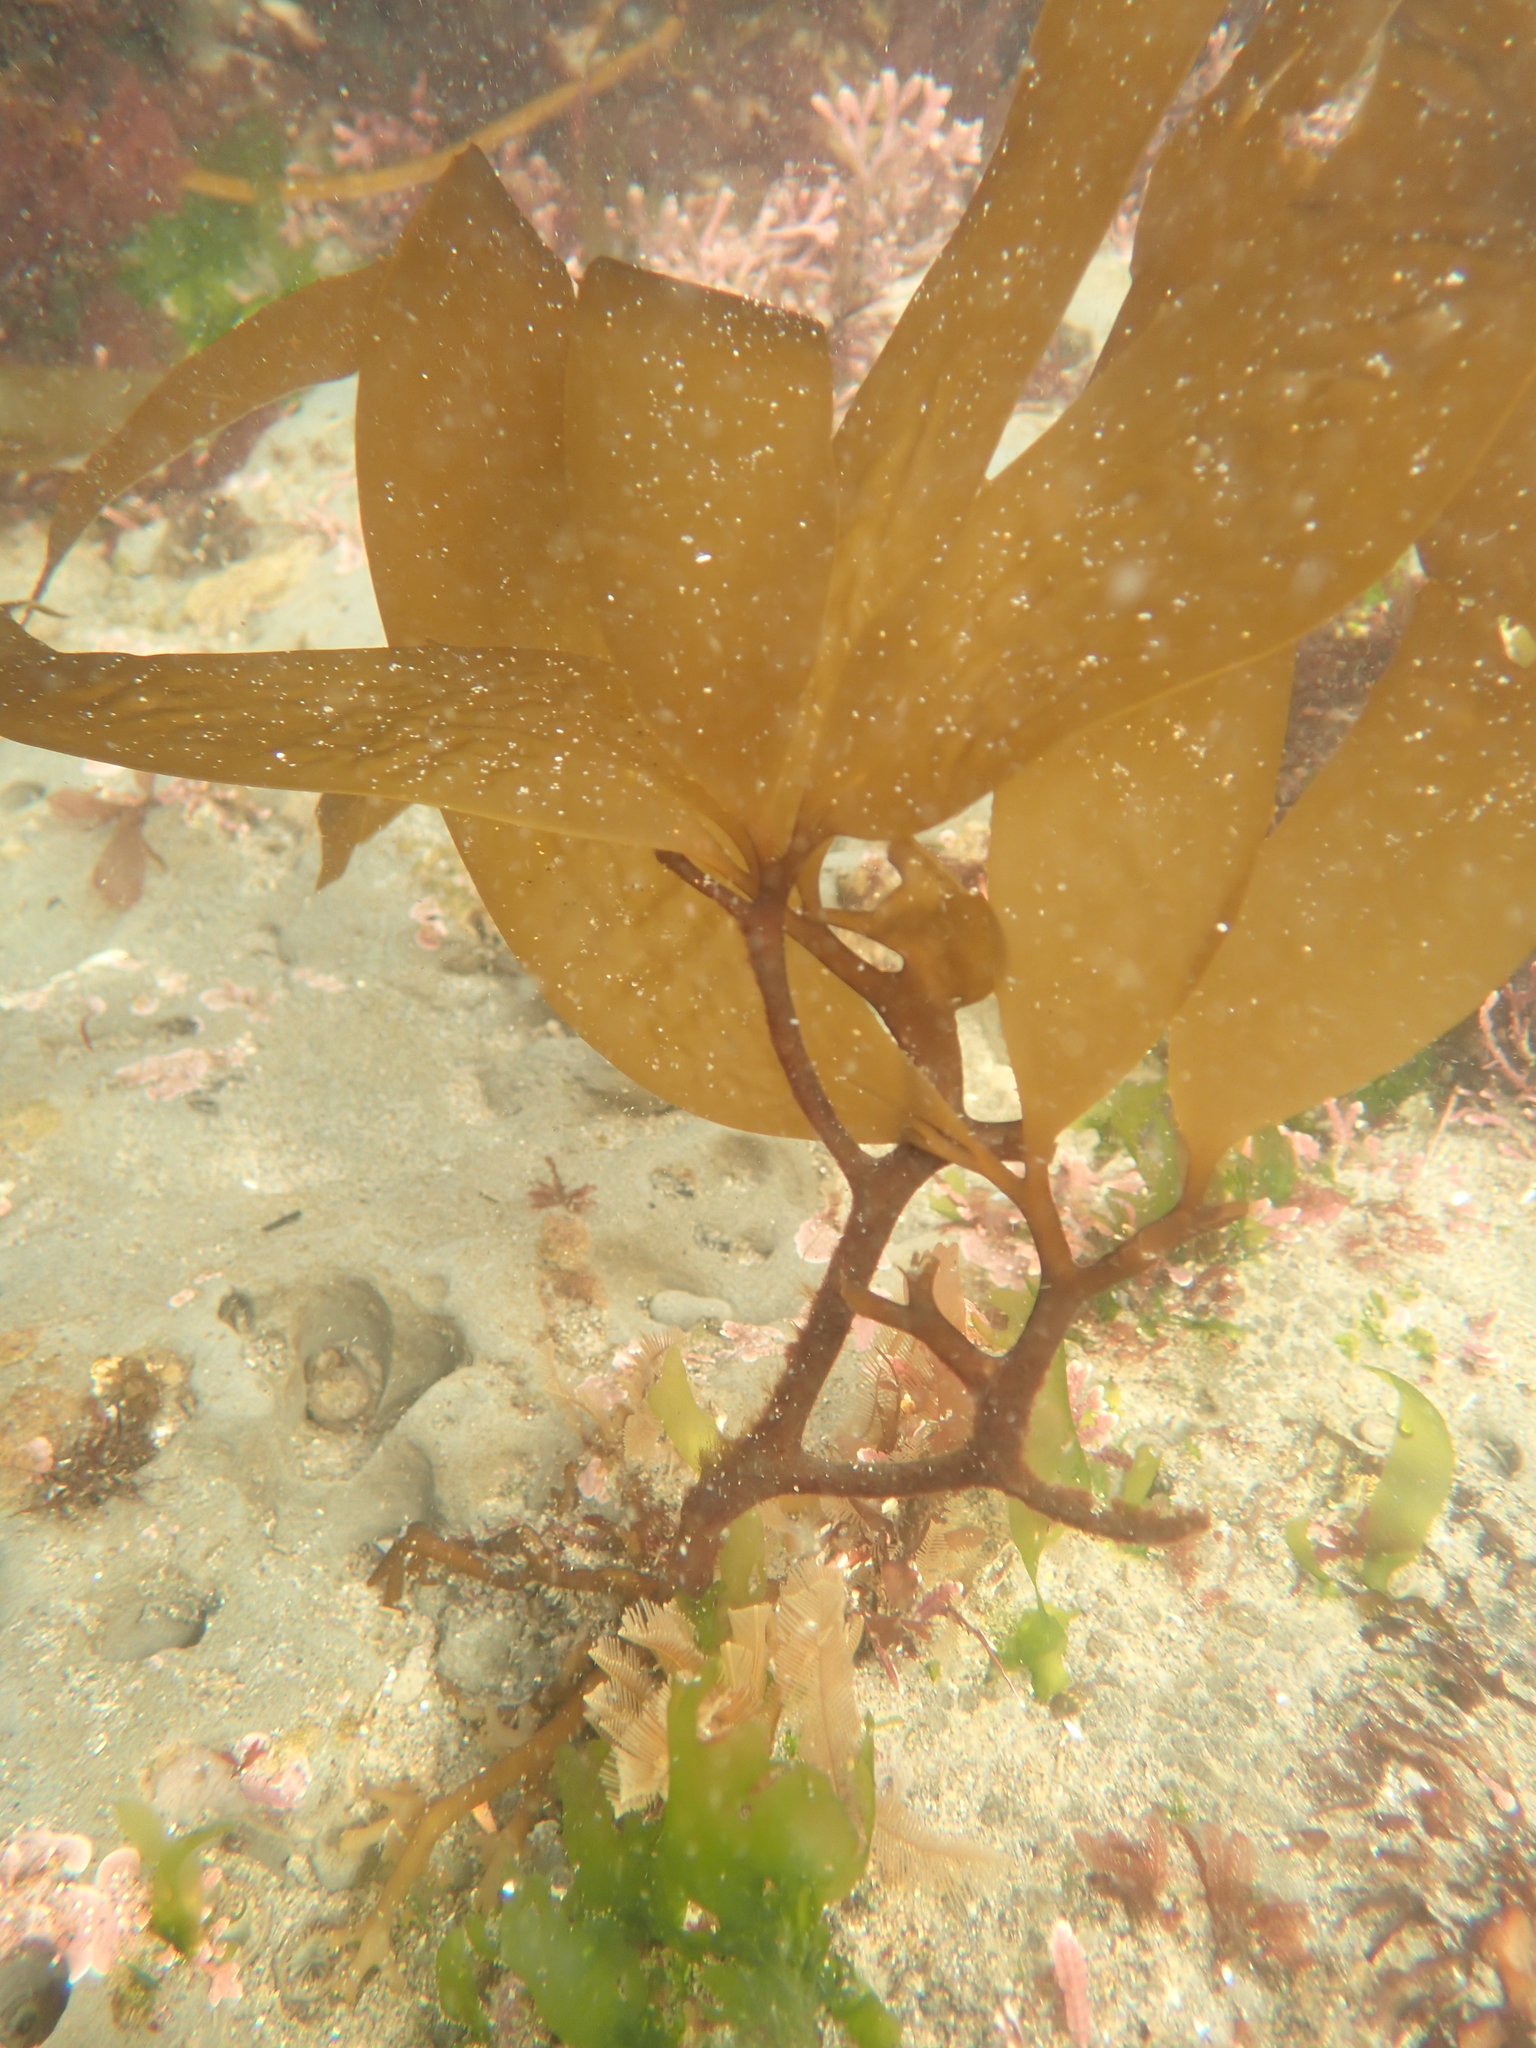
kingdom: Chromista
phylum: Ochrophyta
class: Phaeophyceae
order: Laminariales
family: Laminariaceae
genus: Macrocystis
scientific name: Macrocystis pyrifera
